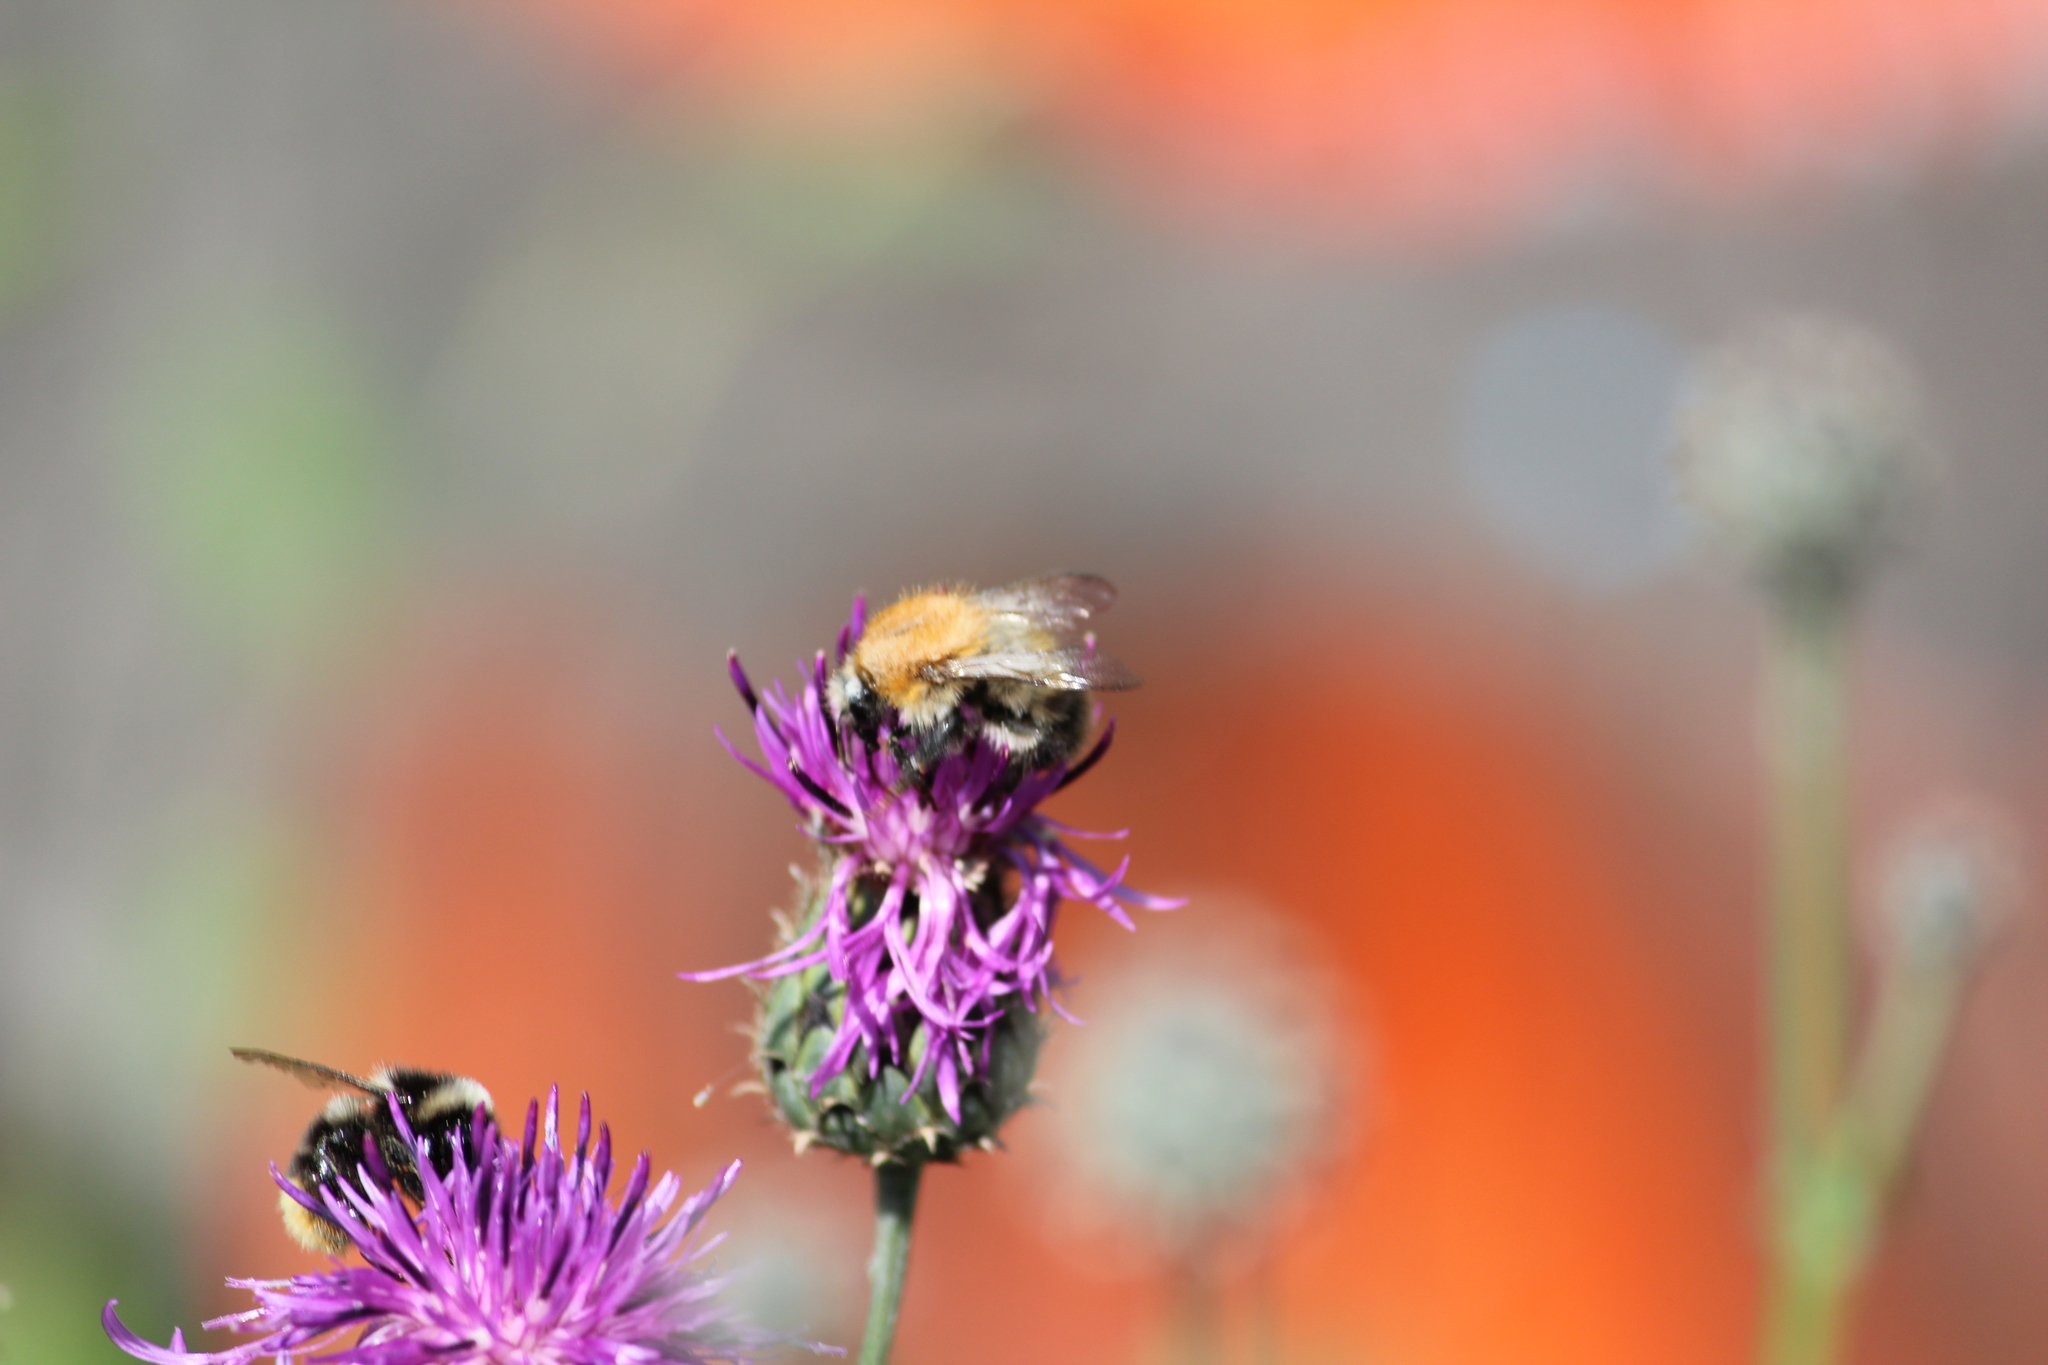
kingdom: Animalia
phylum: Arthropoda
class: Insecta
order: Hymenoptera
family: Apidae
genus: Bombus
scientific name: Bombus pascuorum
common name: Common carder bee
